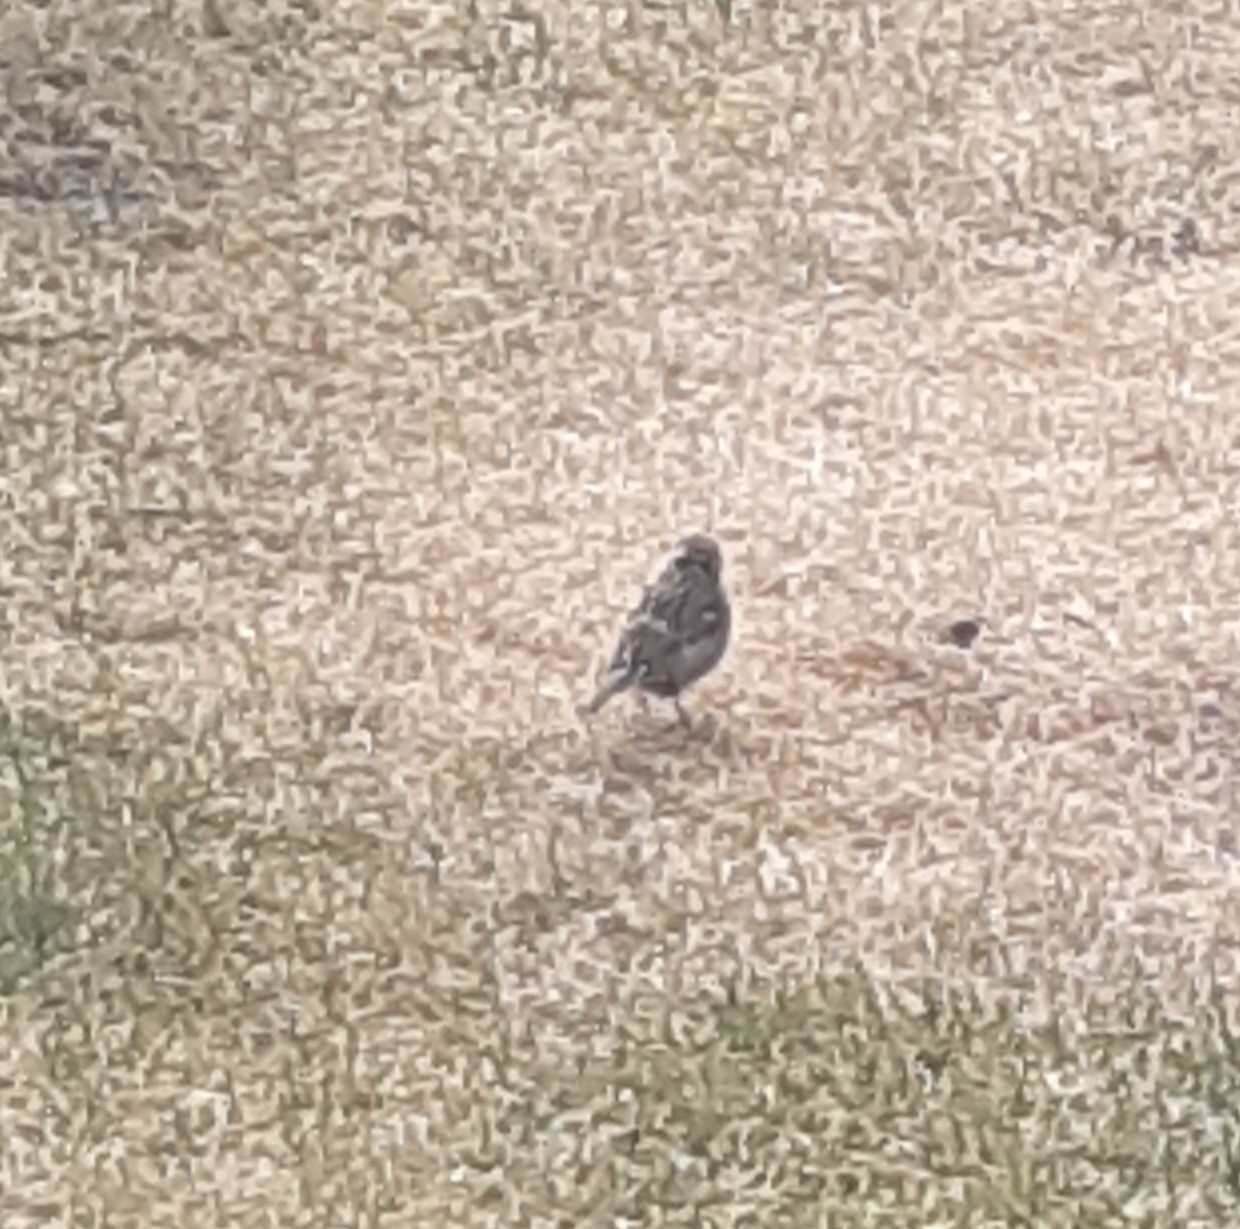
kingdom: Animalia
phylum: Chordata
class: Aves
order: Passeriformes
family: Passeridae
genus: Passer
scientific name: Passer montanus
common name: Eurasian tree sparrow
